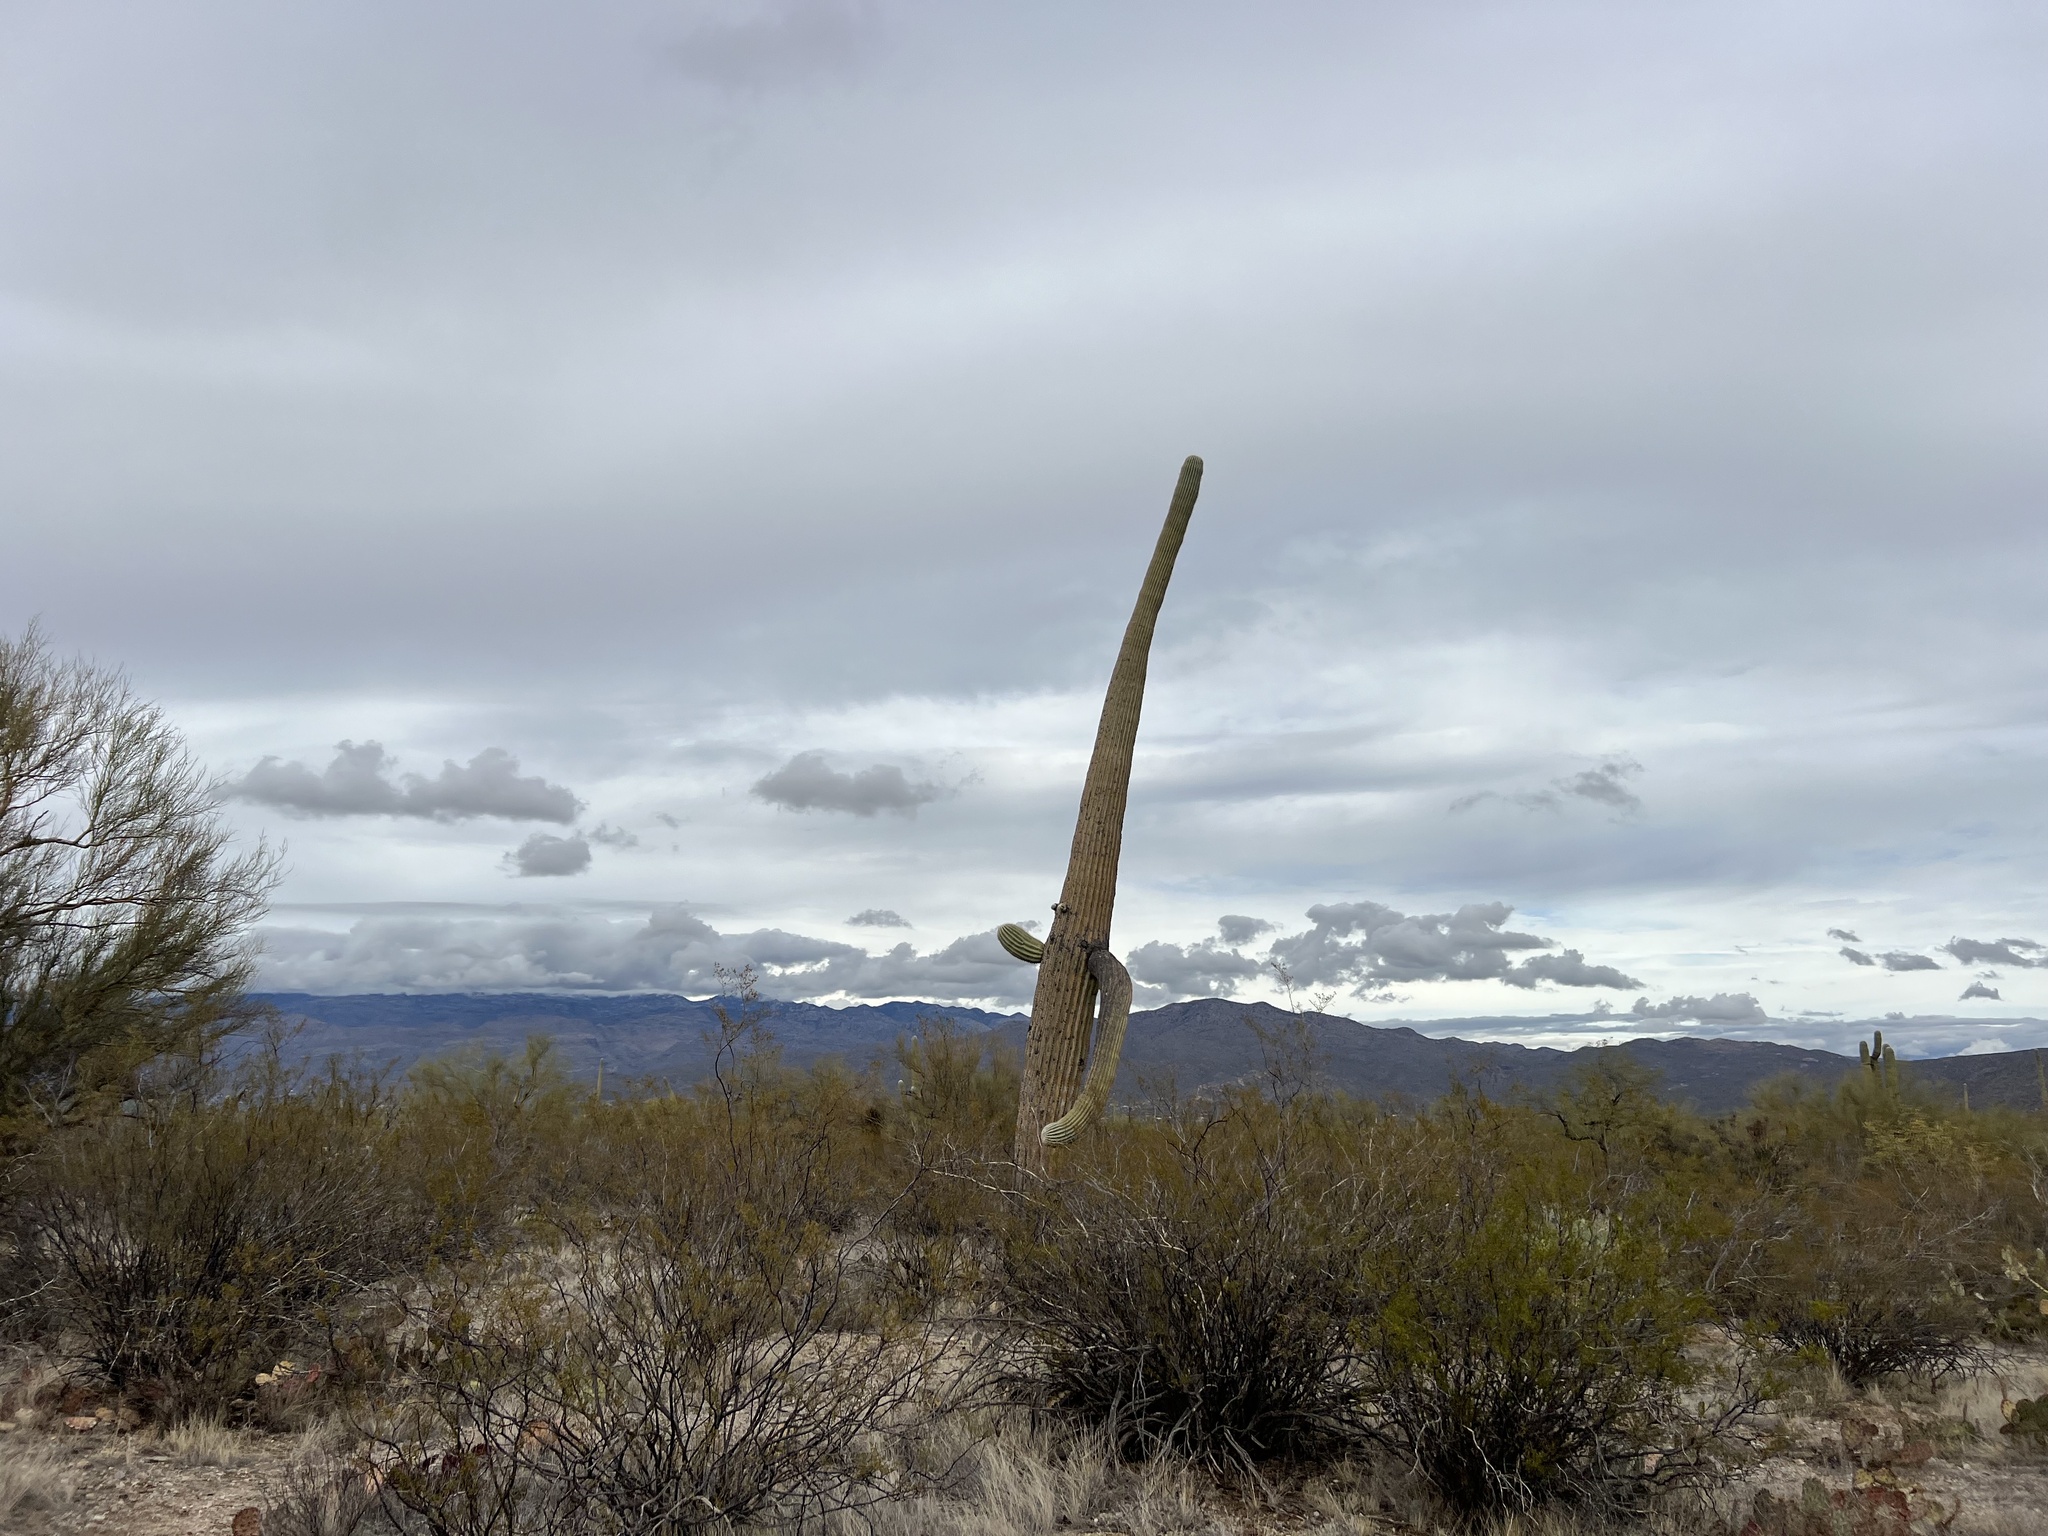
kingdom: Plantae
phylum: Tracheophyta
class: Magnoliopsida
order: Caryophyllales
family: Cactaceae
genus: Carnegiea
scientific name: Carnegiea gigantea
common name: Saguaro
